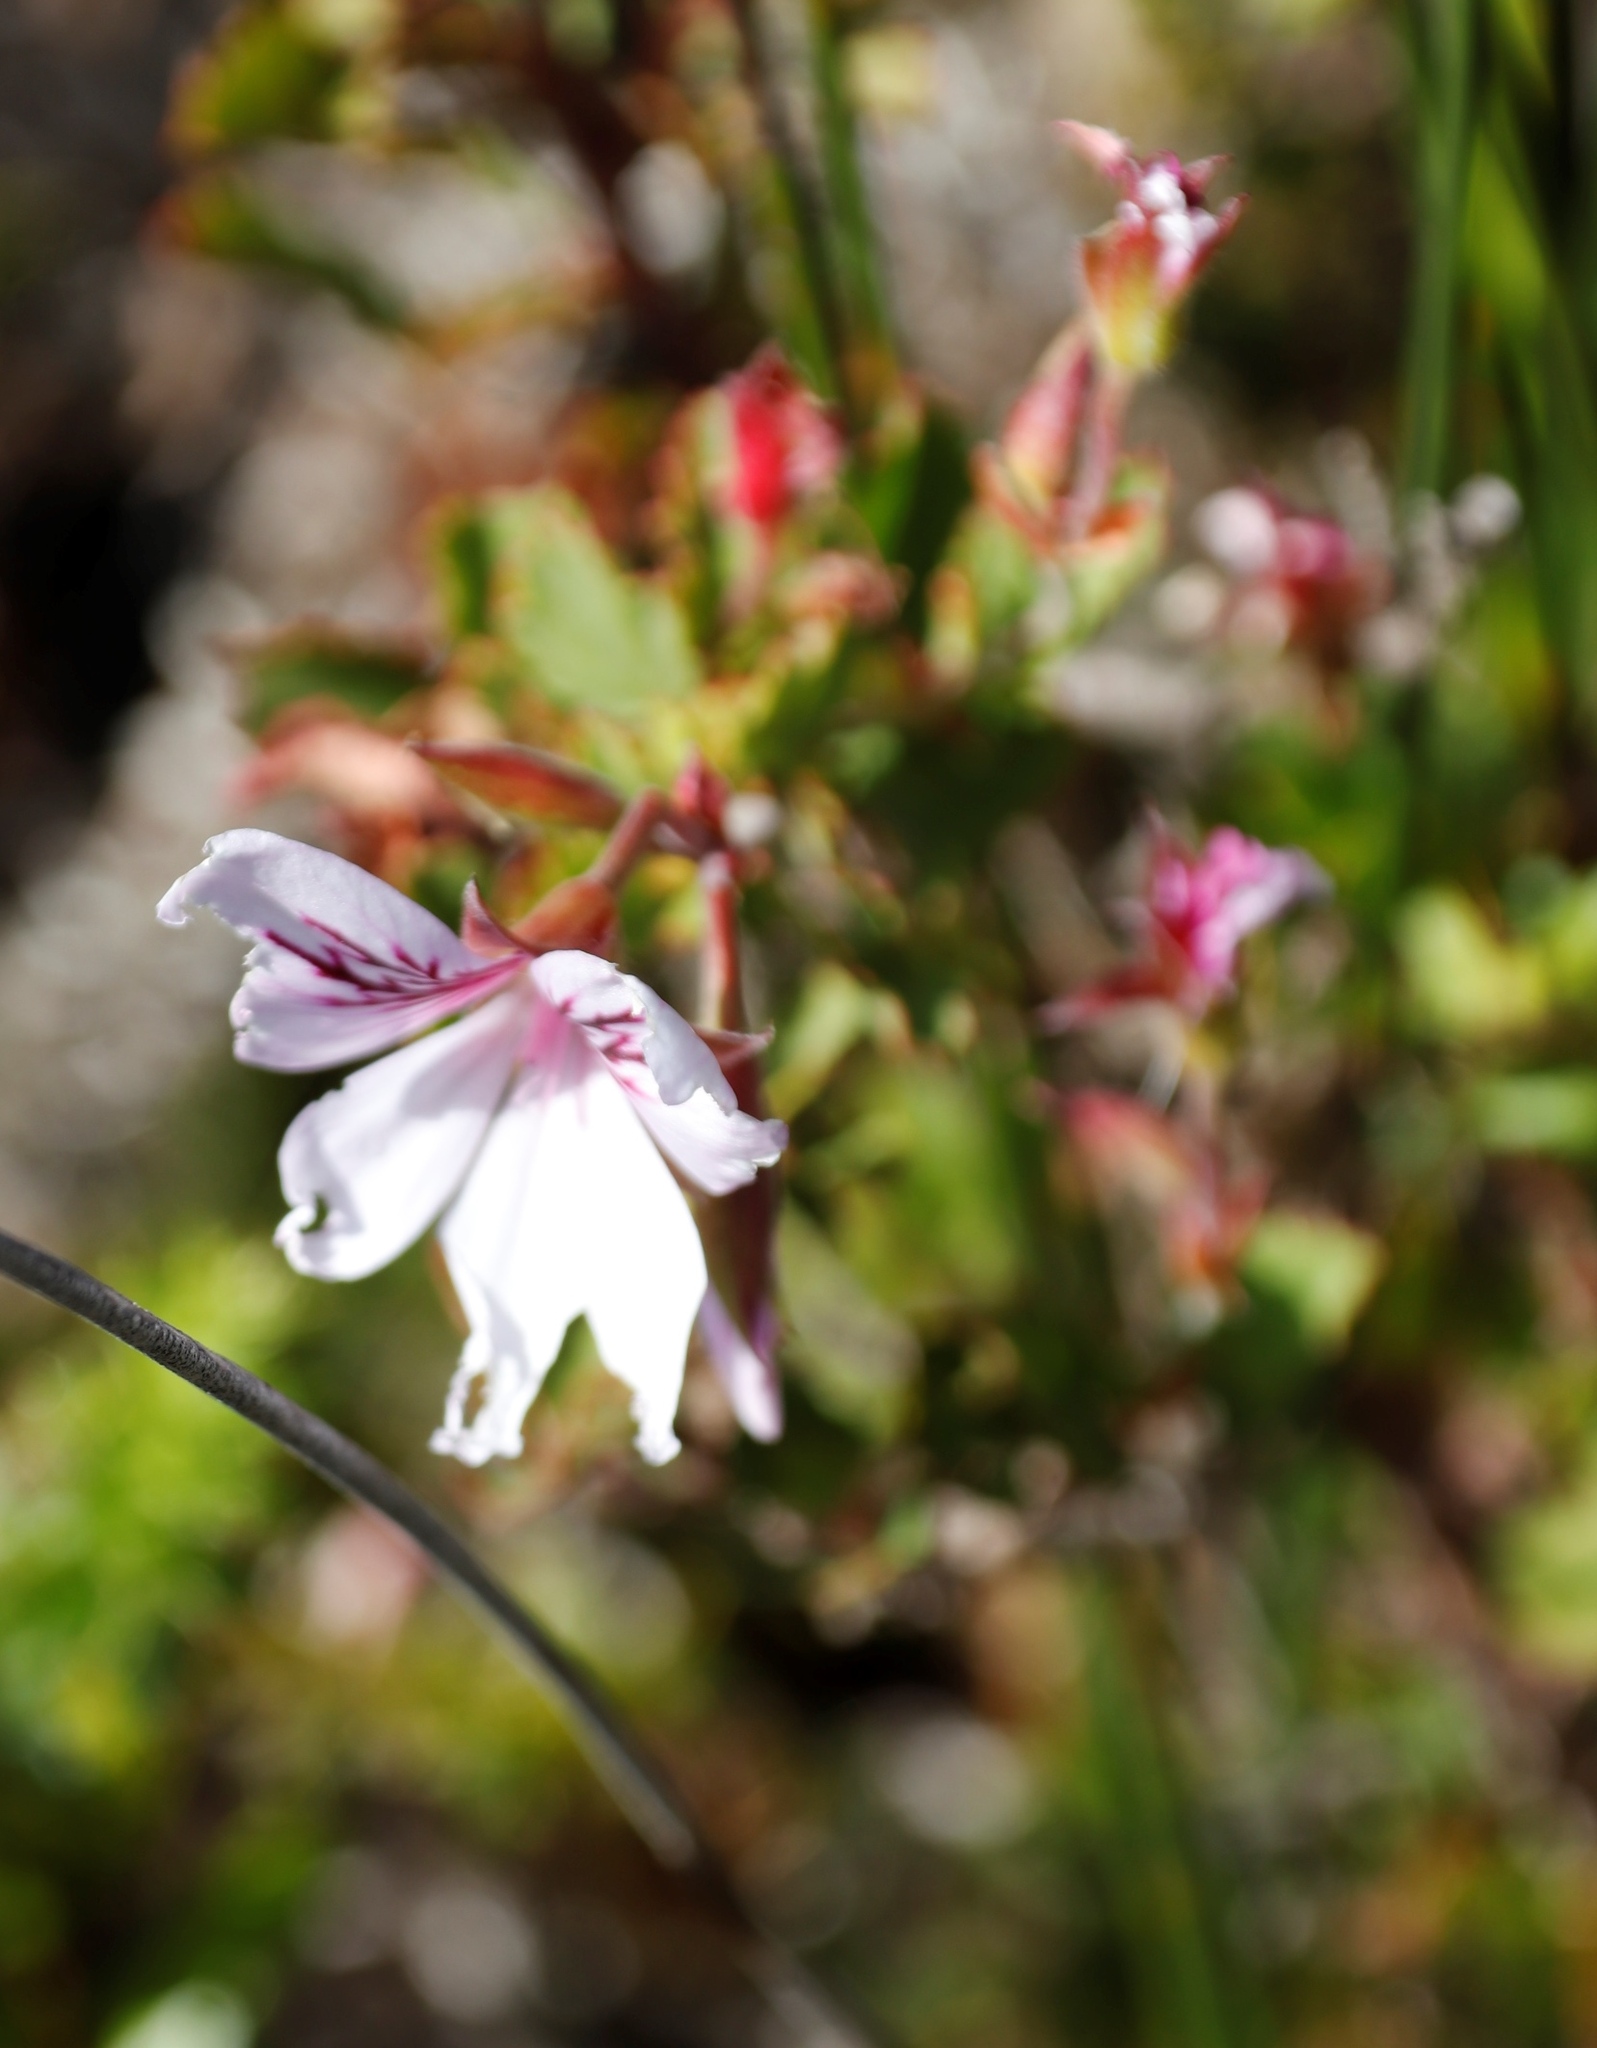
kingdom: Plantae
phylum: Tracheophyta
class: Magnoliopsida
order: Geraniales
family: Geraniaceae
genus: Pelargonium
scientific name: Pelargonium betulinum
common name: Birch-leaf pelargonium
